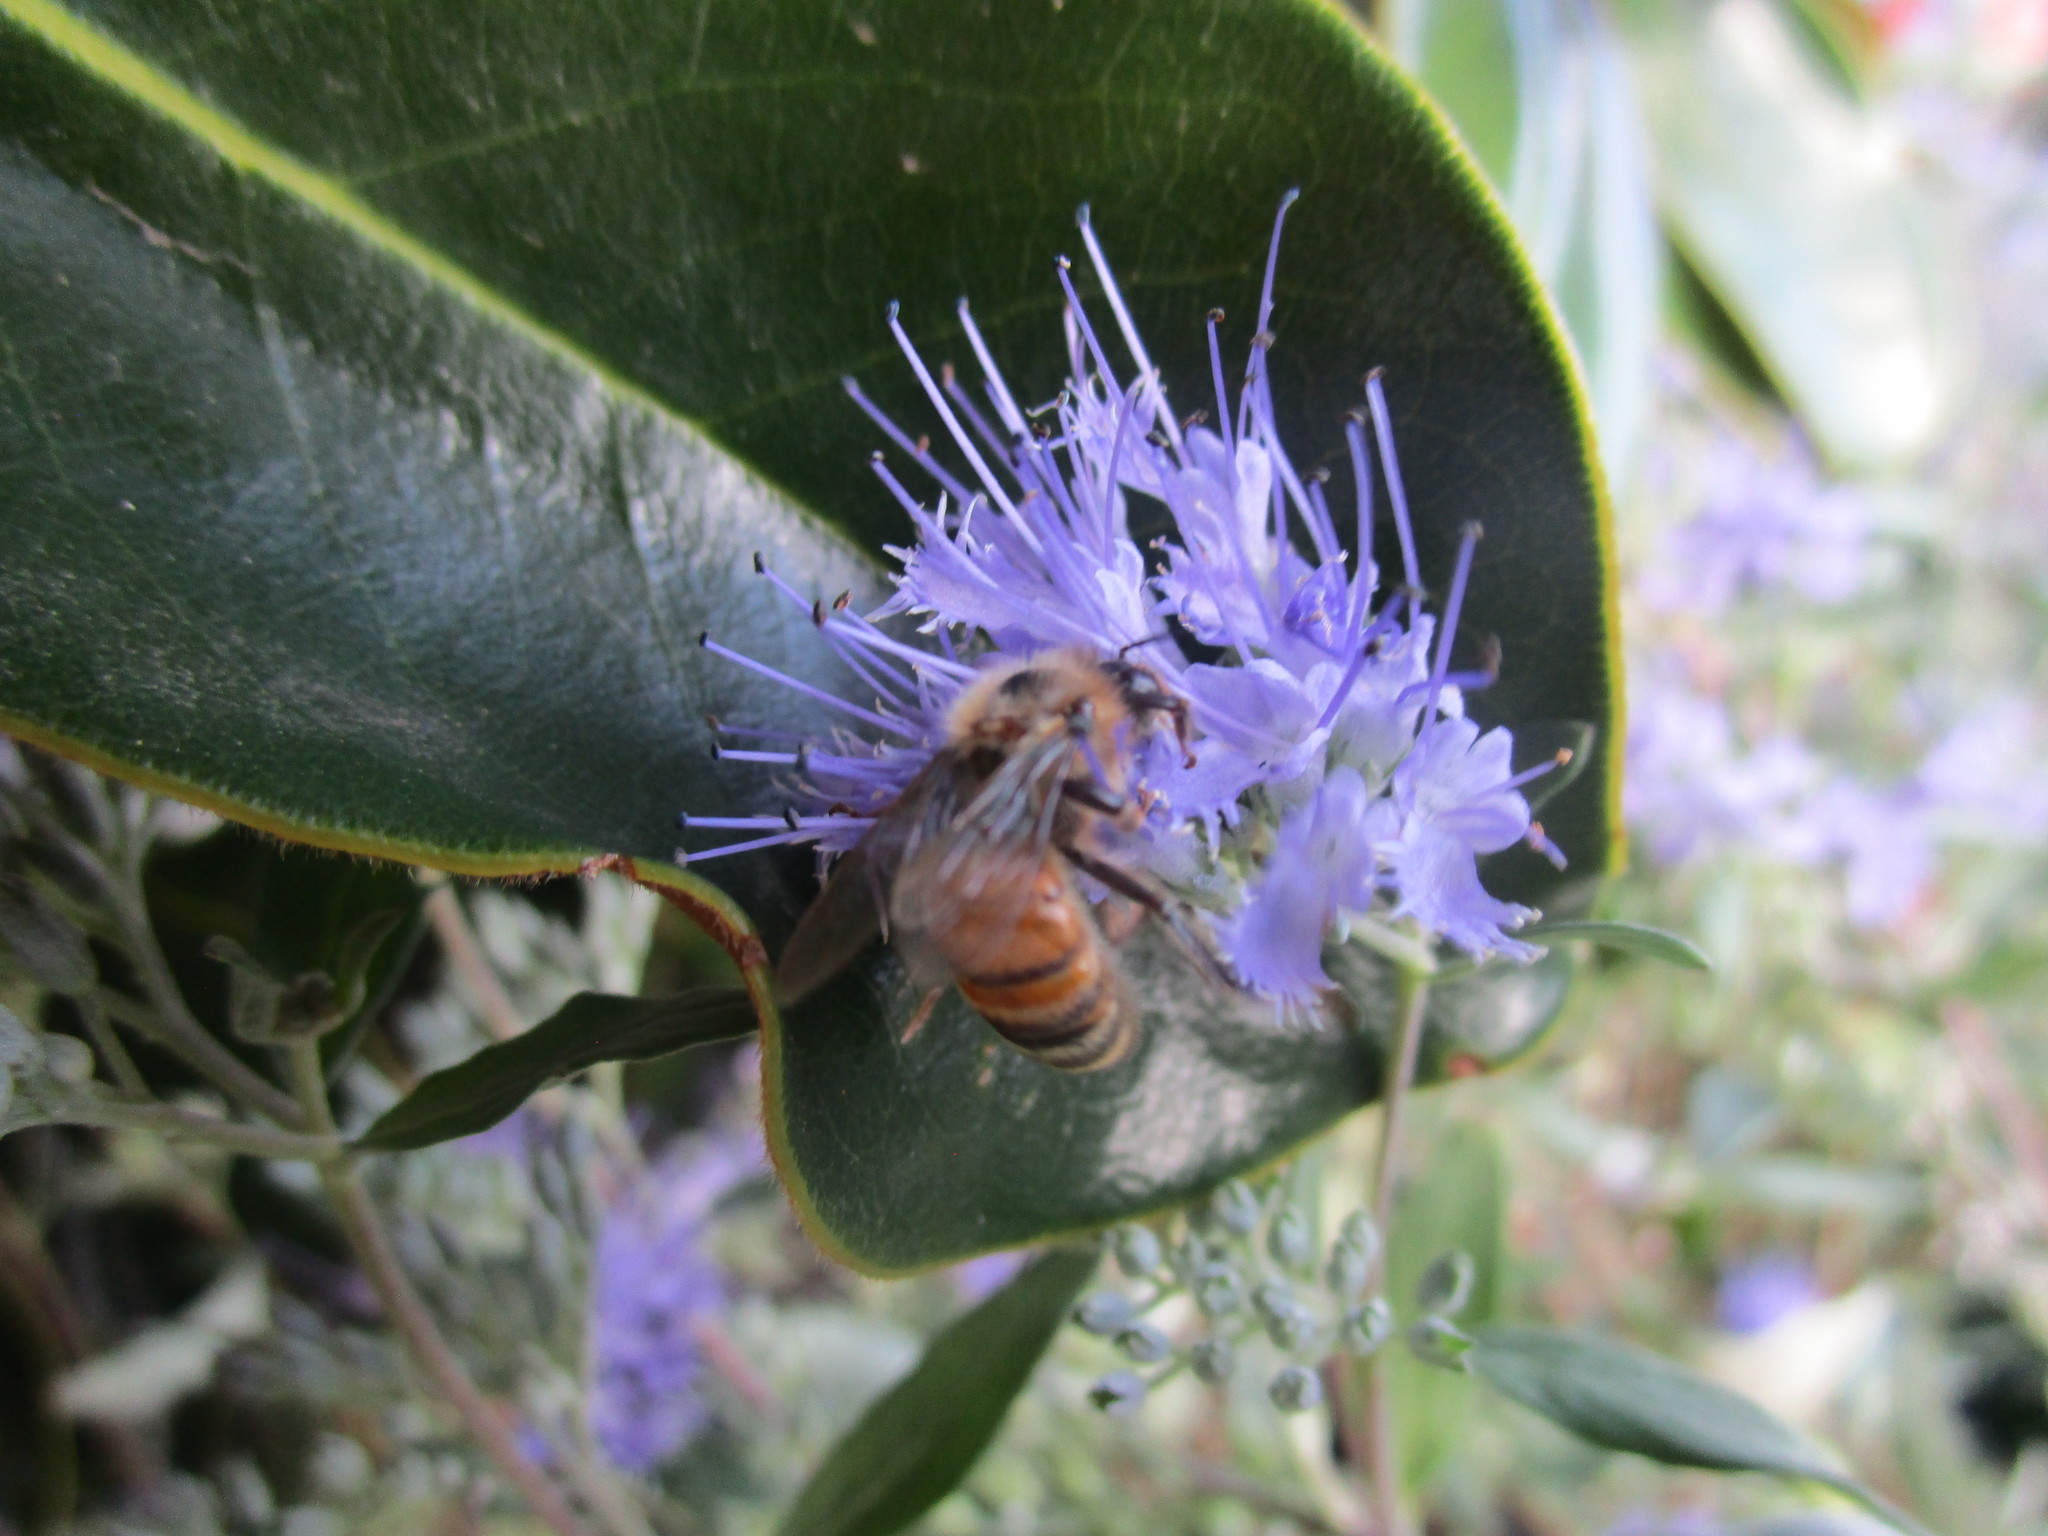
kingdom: Animalia
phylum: Arthropoda
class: Insecta
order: Hymenoptera
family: Apidae
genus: Apis
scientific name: Apis mellifera
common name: Honey bee
